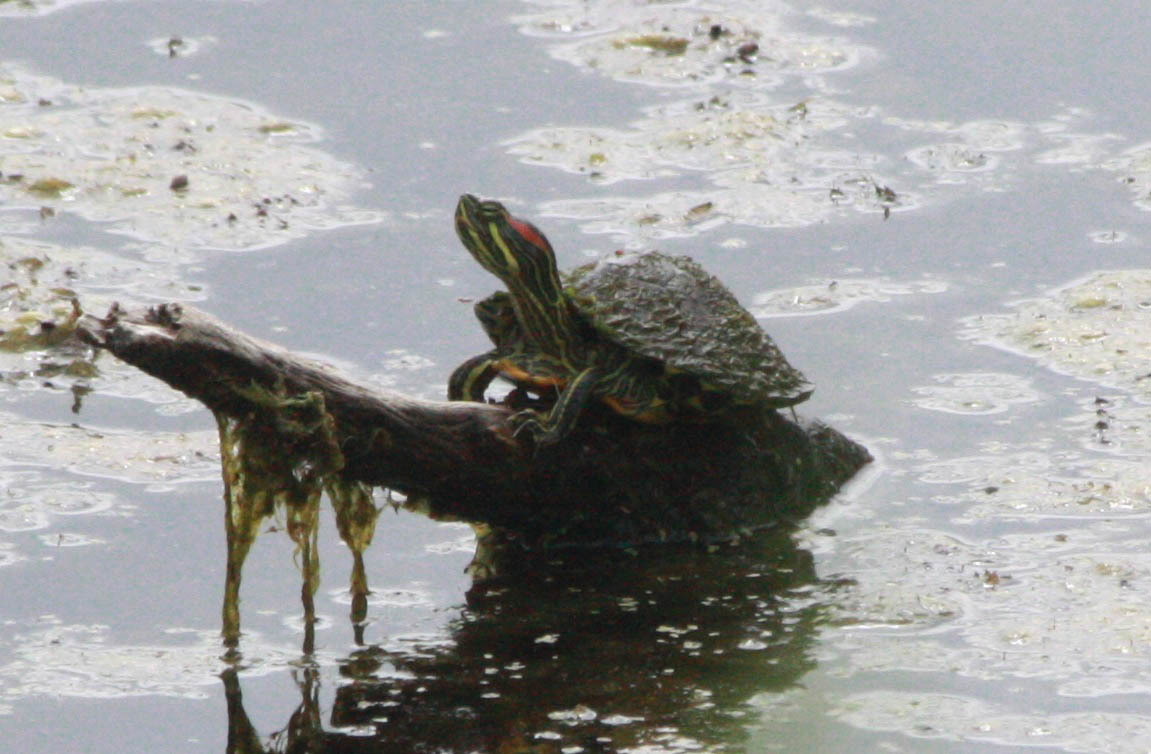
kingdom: Animalia
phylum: Chordata
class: Testudines
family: Emydidae
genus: Trachemys
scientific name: Trachemys scripta
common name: Slider
